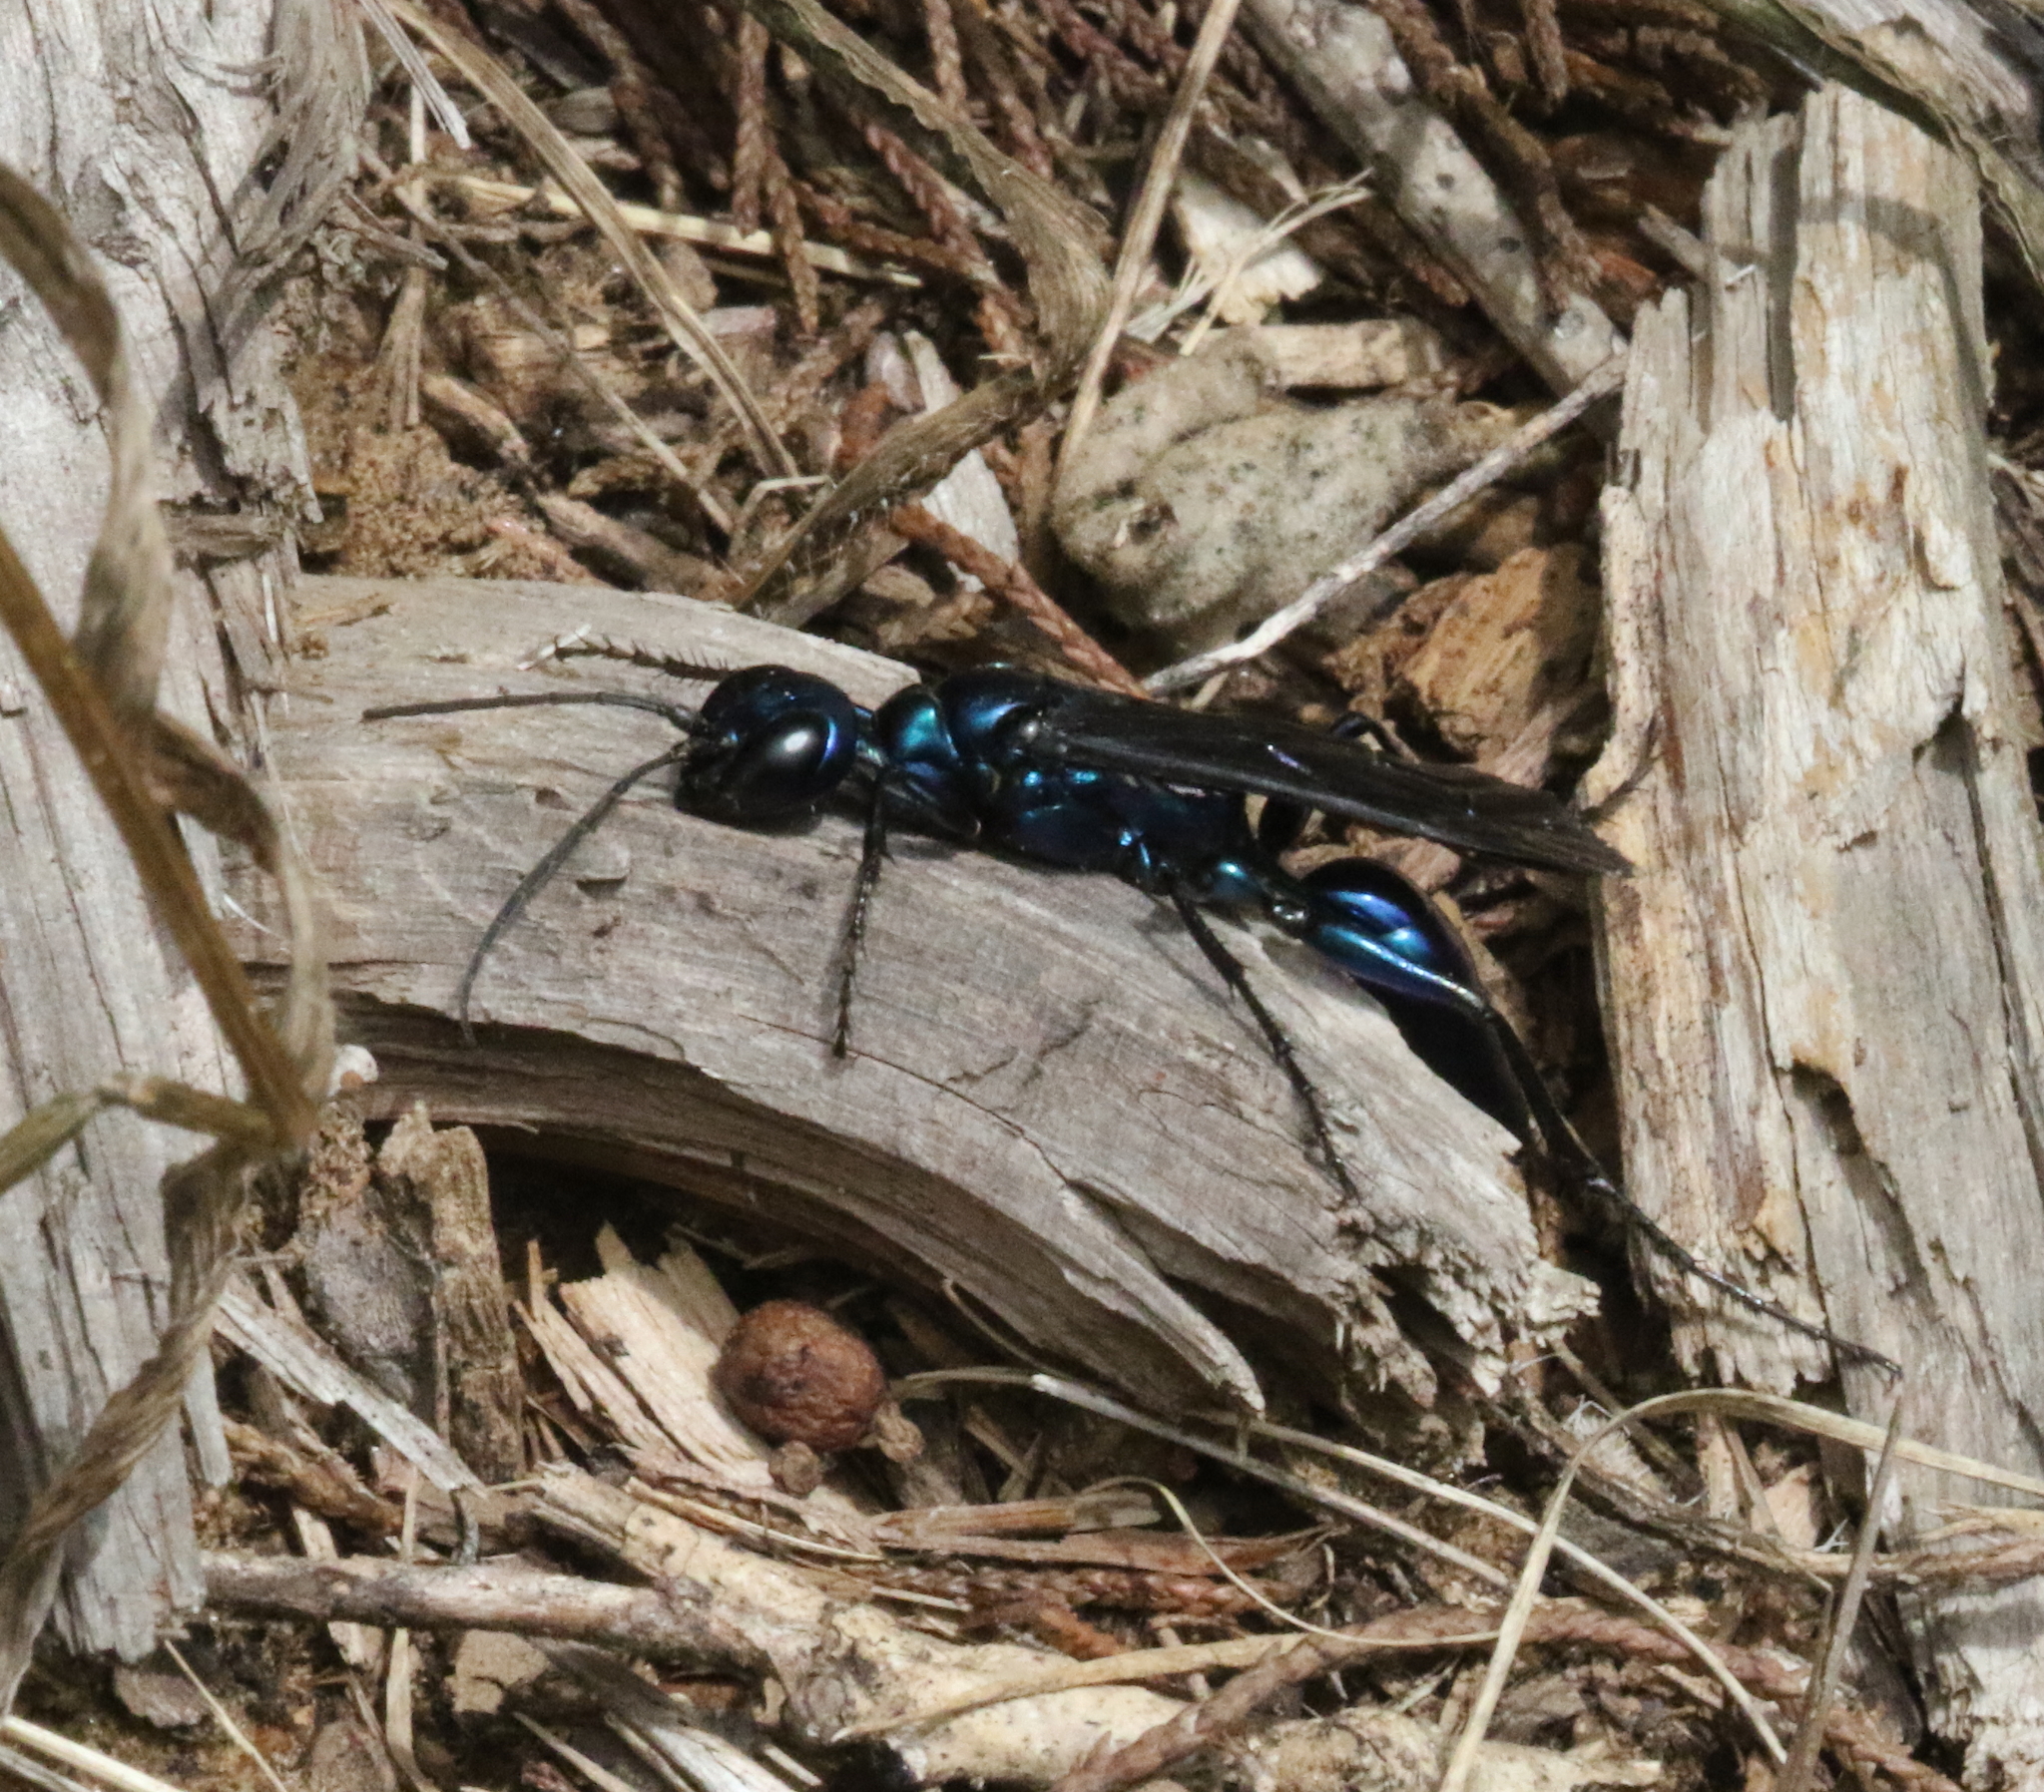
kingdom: Animalia
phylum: Arthropoda
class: Insecta
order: Hymenoptera
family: Sphecidae
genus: Chlorion
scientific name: Chlorion
